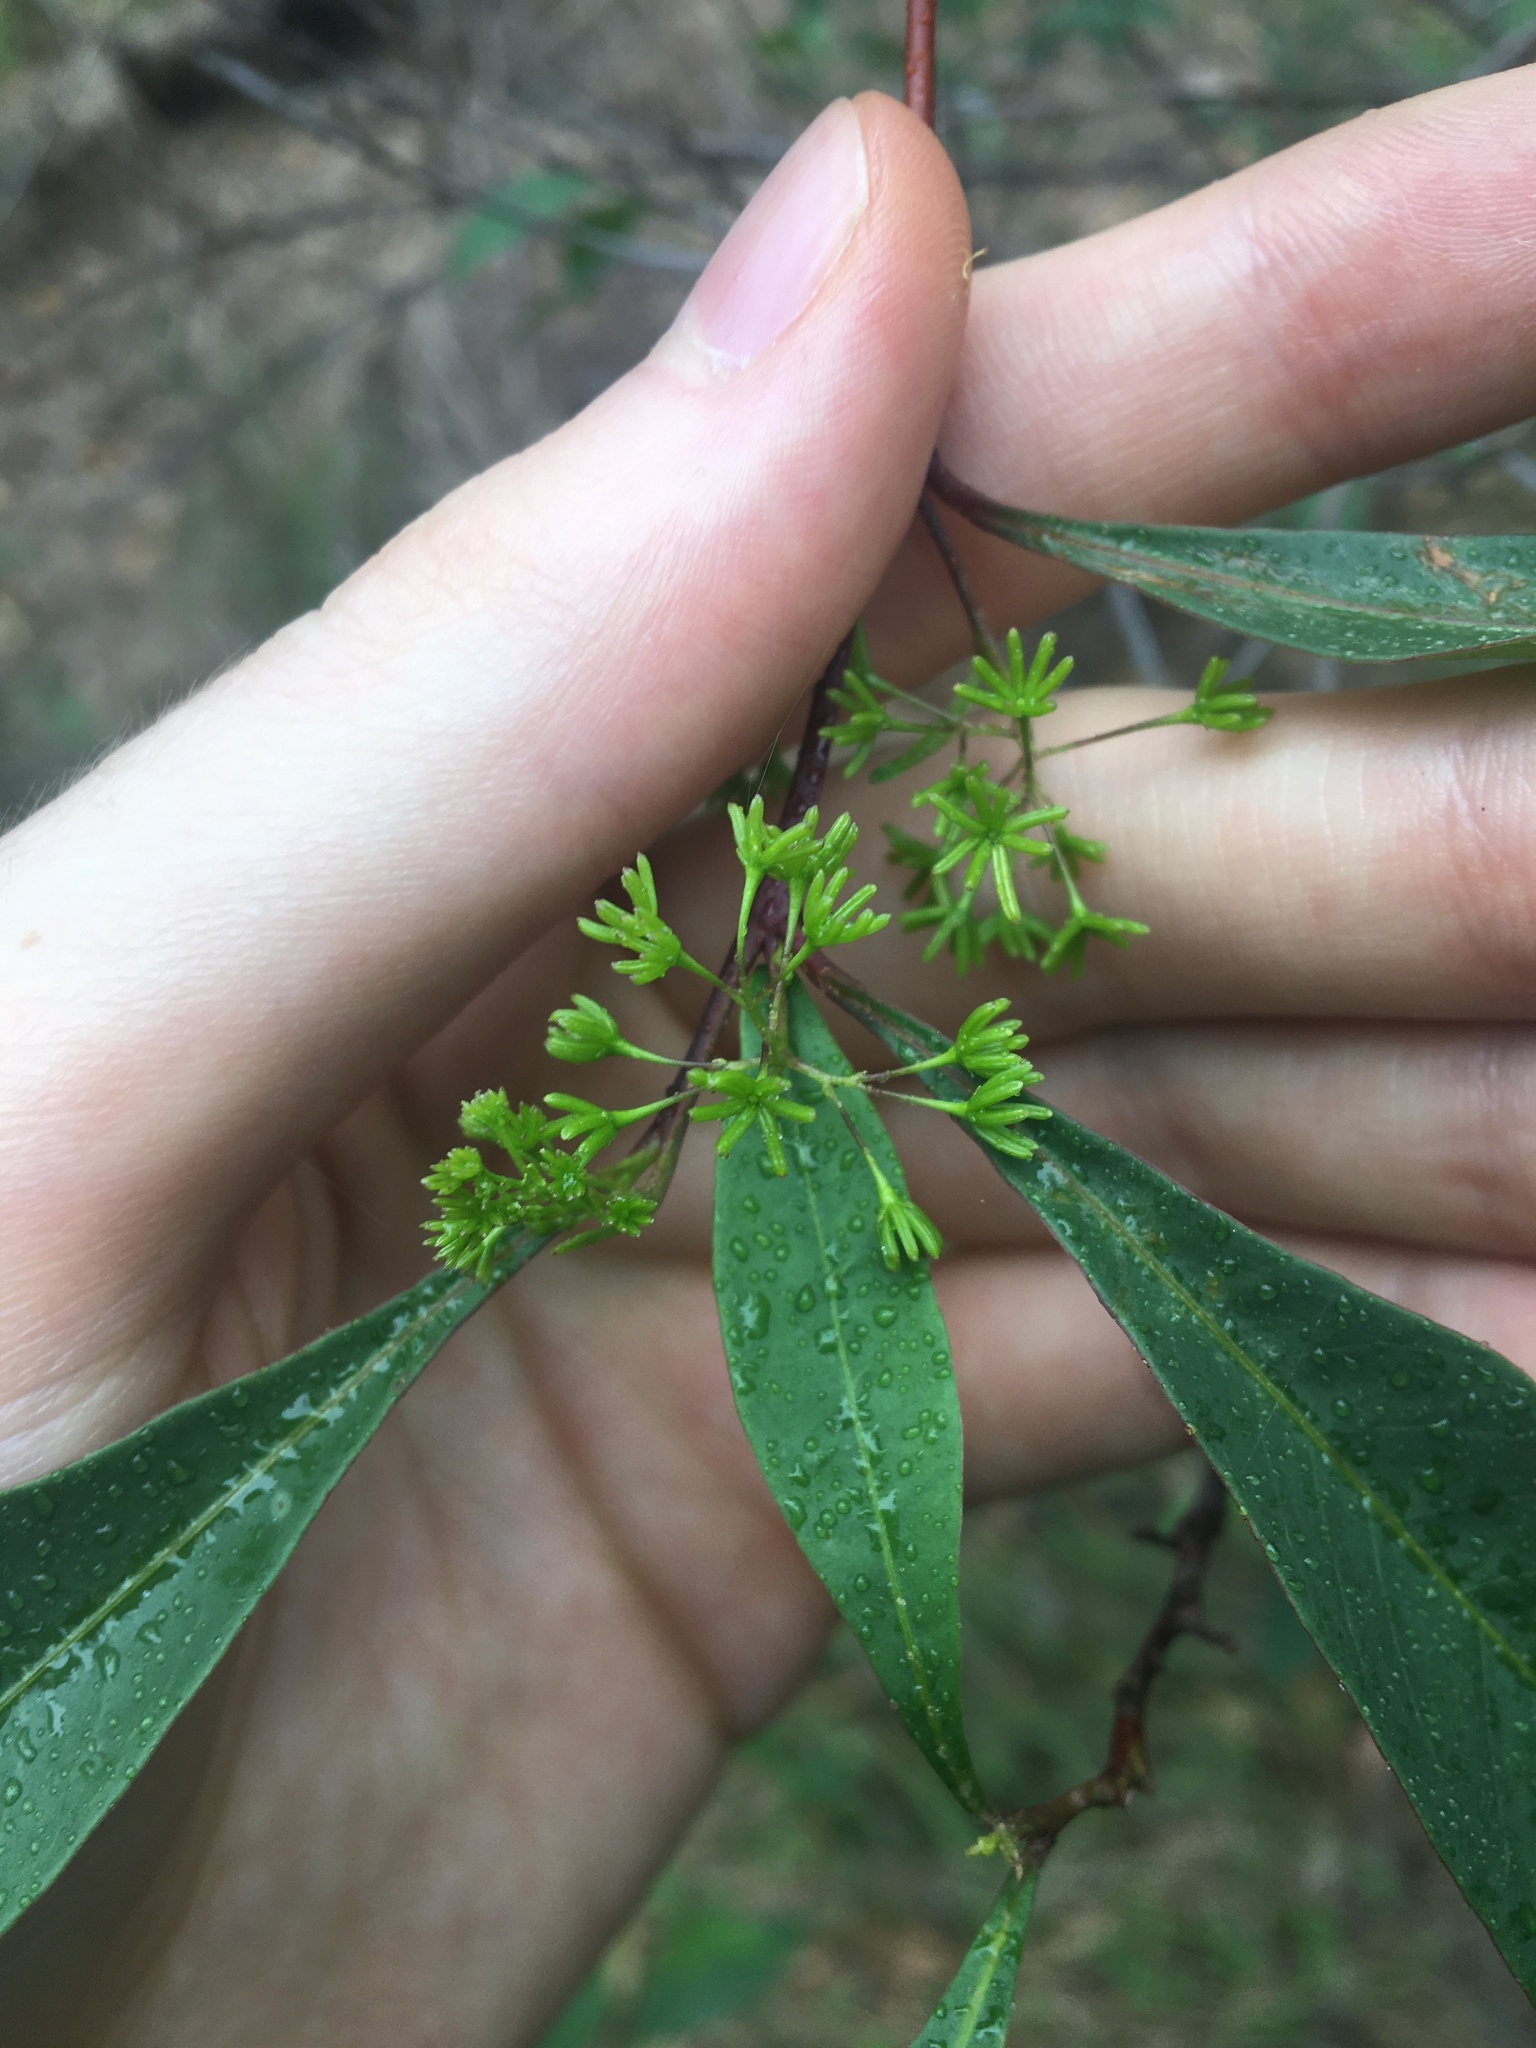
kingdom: Plantae
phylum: Tracheophyta
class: Magnoliopsida
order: Sapindales
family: Sapindaceae
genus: Dodonaea
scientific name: Dodonaea triquetra
